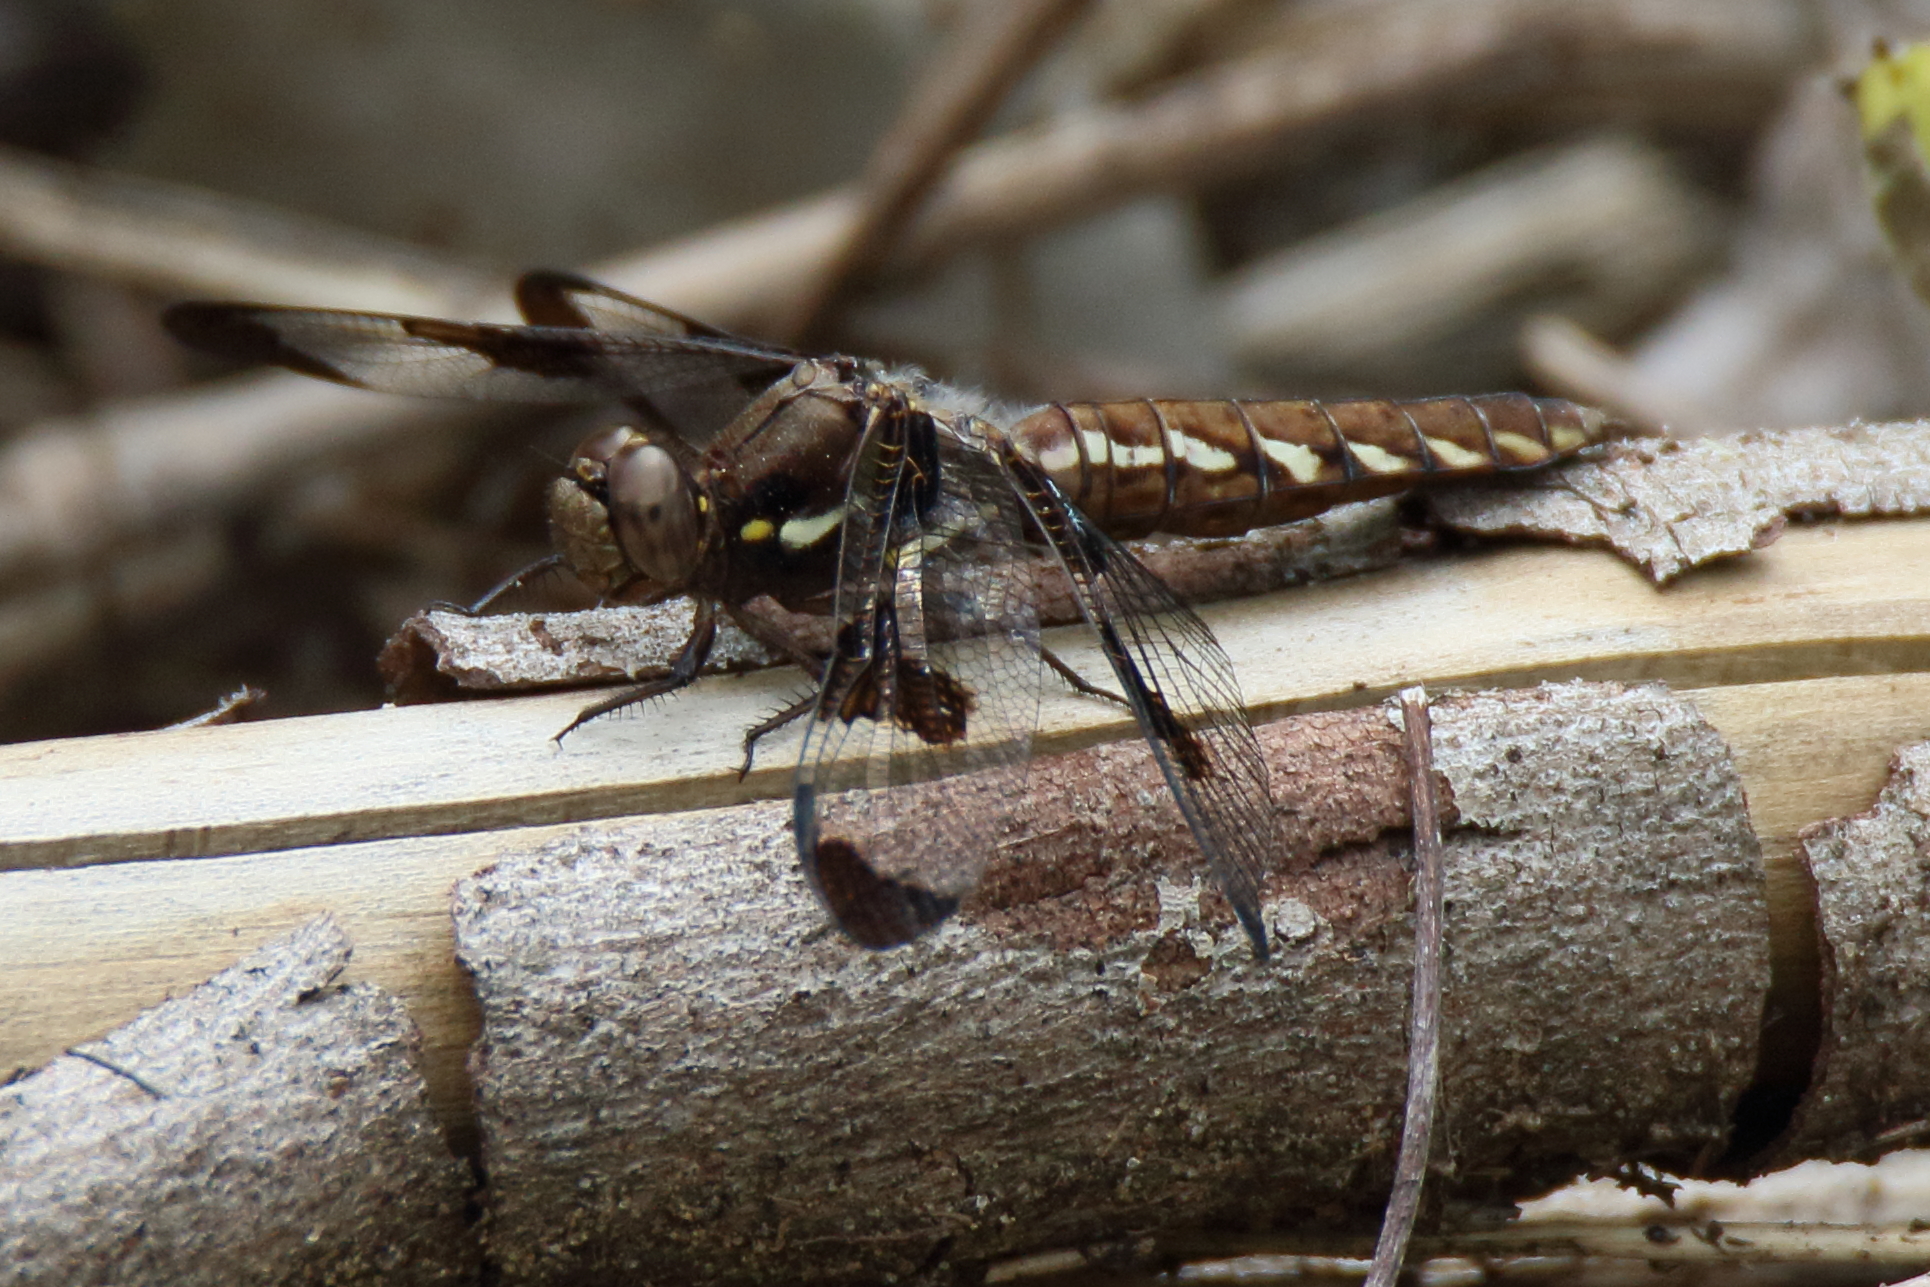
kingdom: Animalia
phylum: Arthropoda
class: Insecta
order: Odonata
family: Libellulidae
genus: Plathemis
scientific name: Plathemis lydia
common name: Common whitetail
